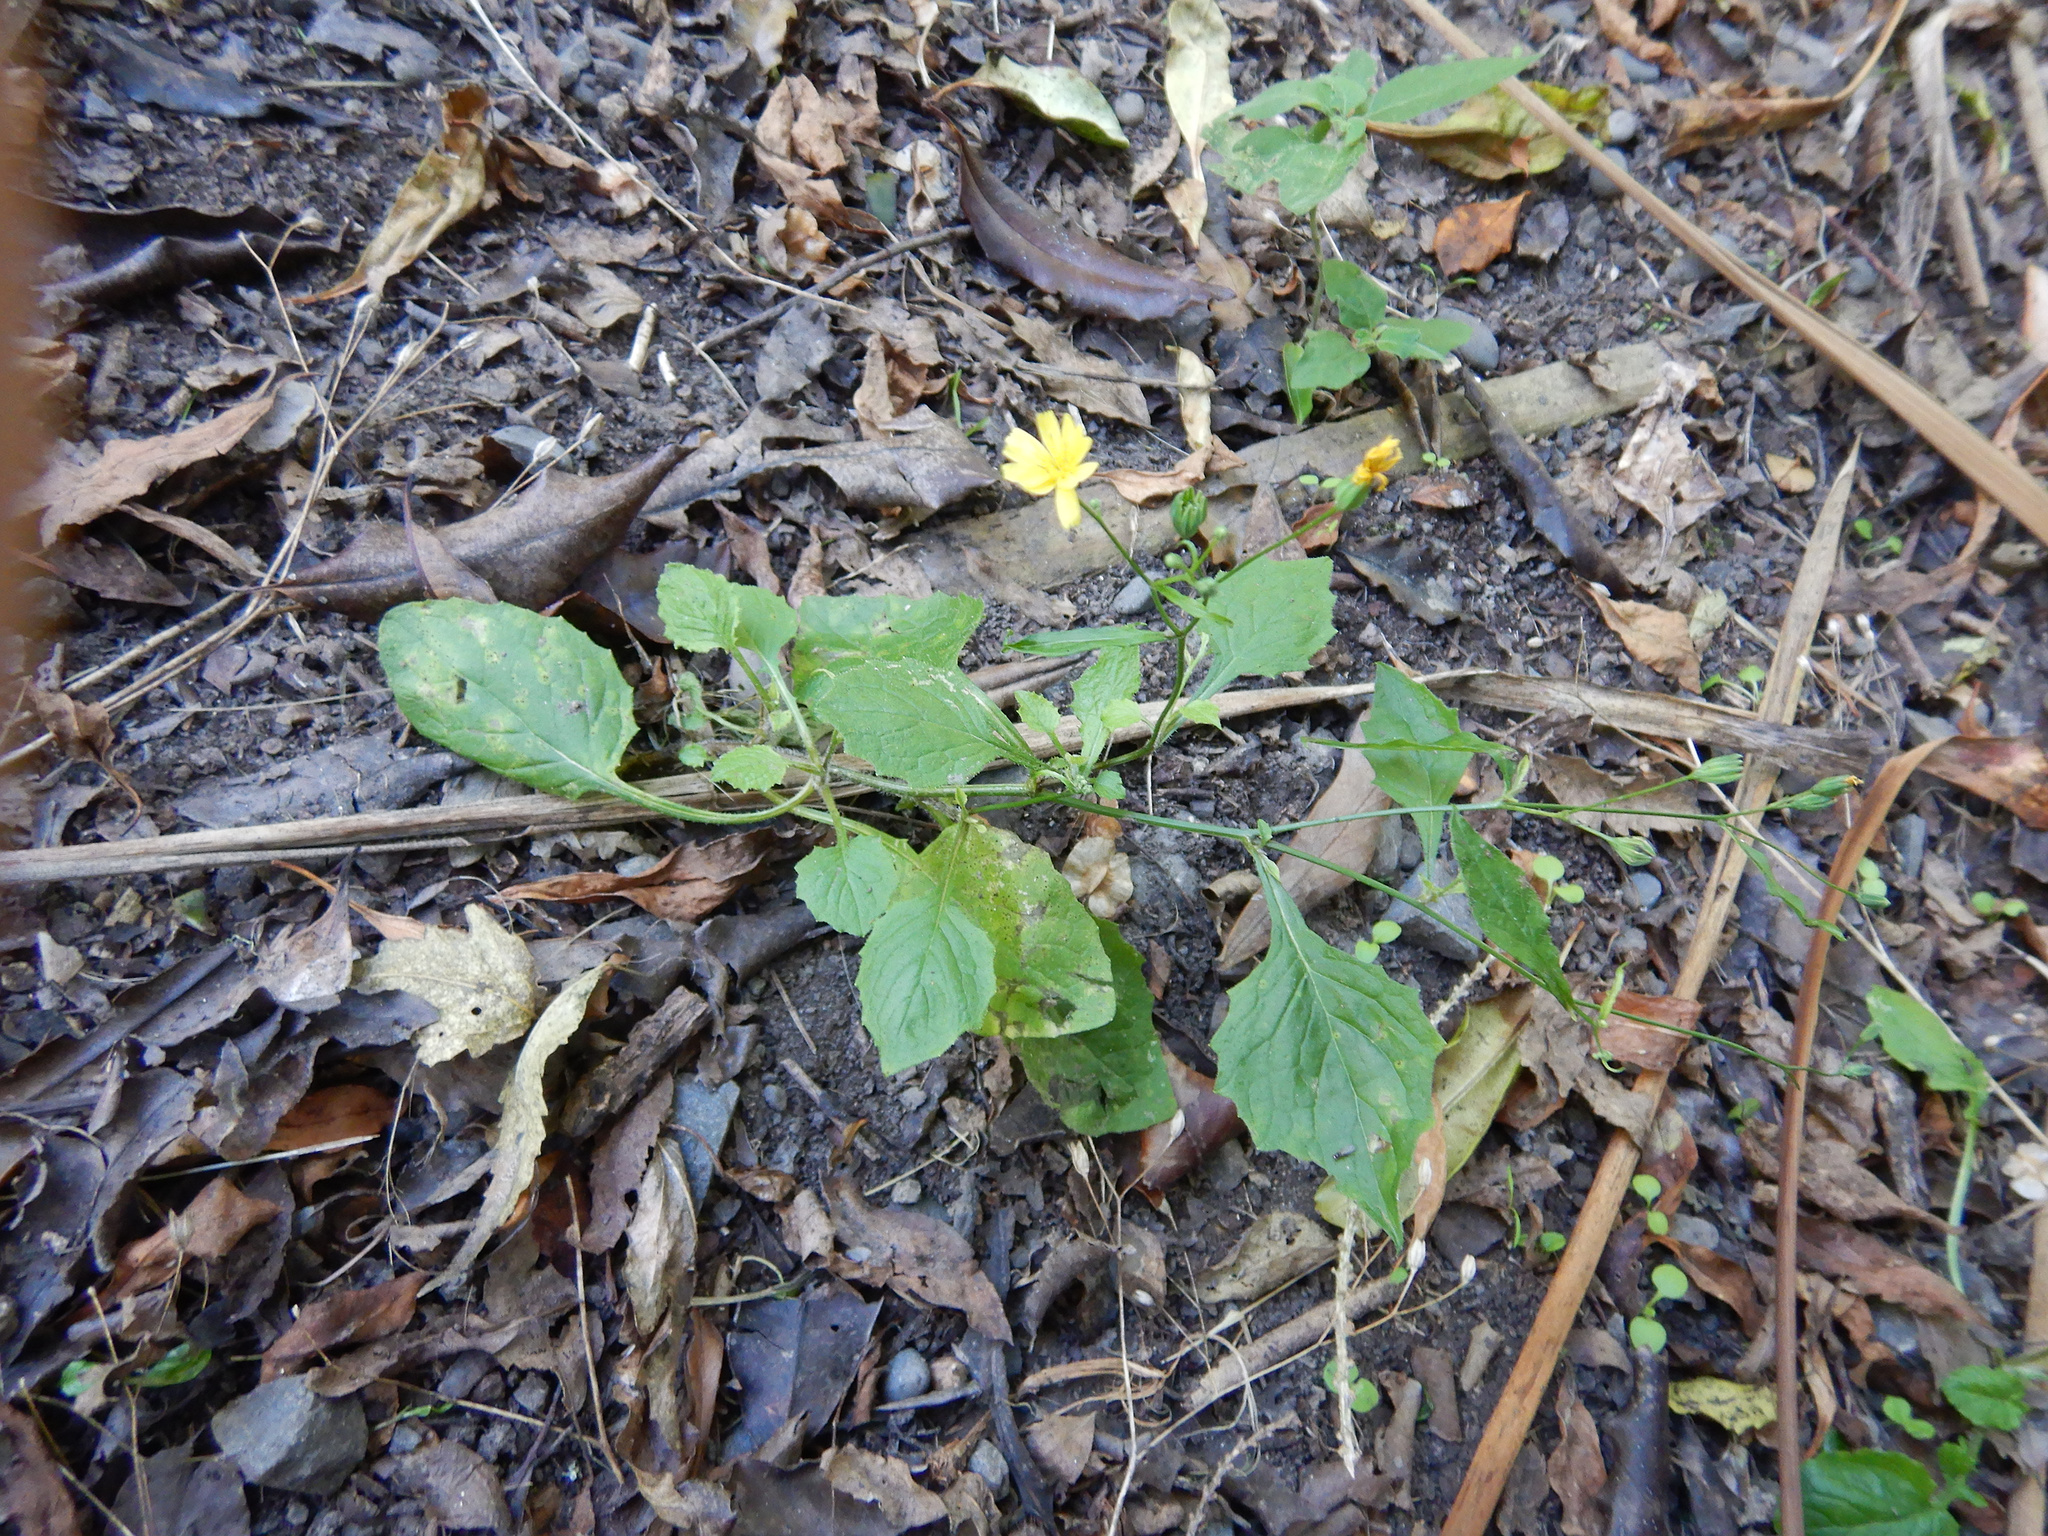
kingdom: Plantae
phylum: Tracheophyta
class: Magnoliopsida
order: Asterales
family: Asteraceae
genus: Lapsana
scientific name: Lapsana communis
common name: Nipplewort
